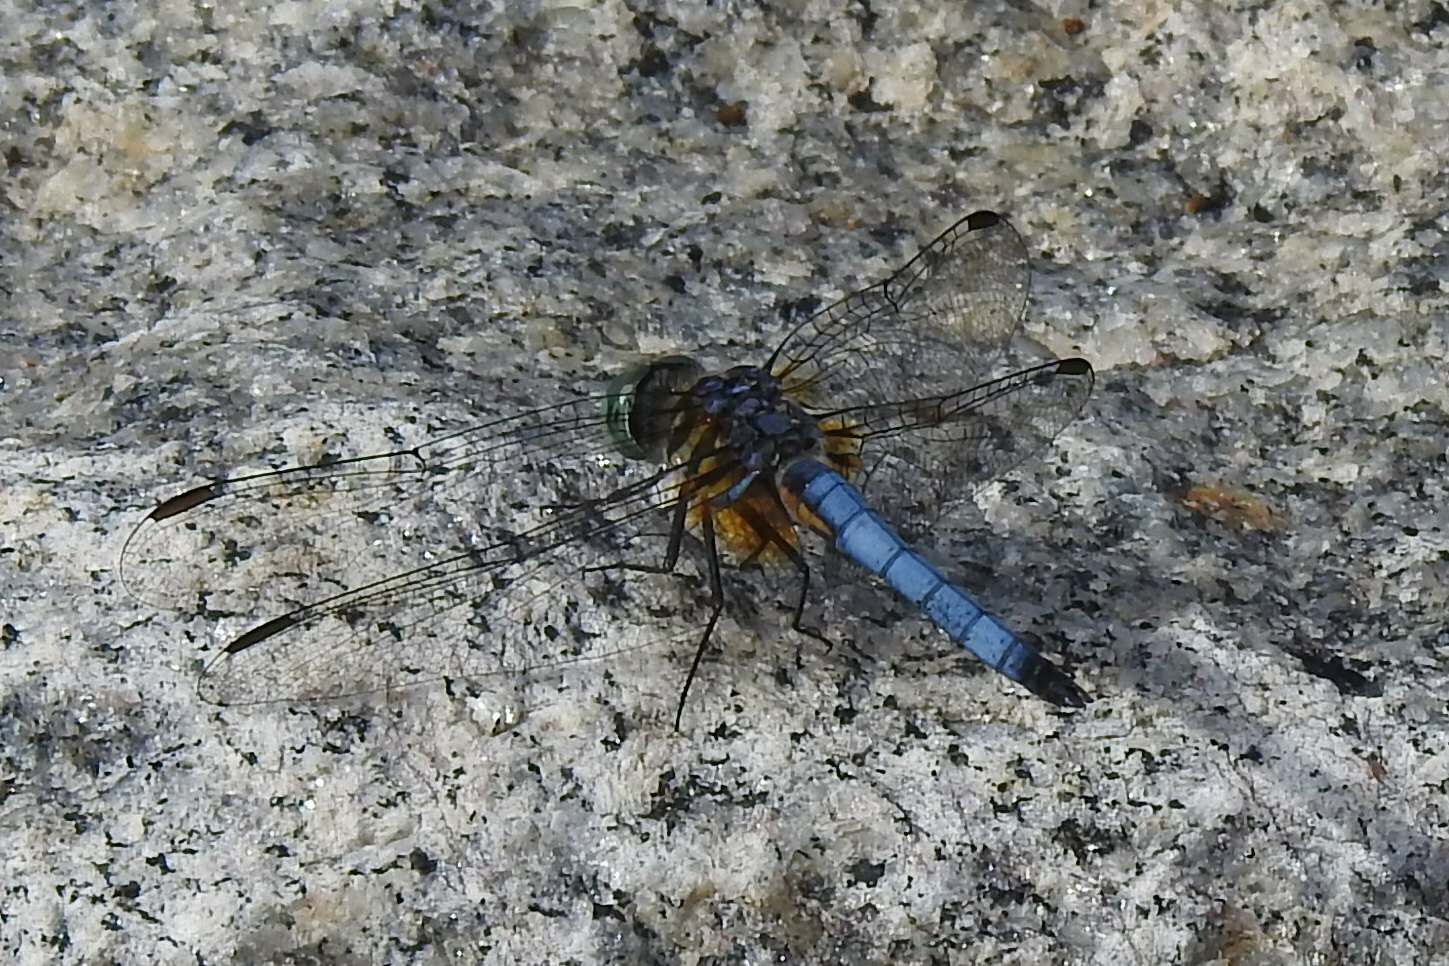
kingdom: Animalia
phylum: Arthropoda
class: Insecta
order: Odonata
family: Libellulidae
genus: Pachydiplax
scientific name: Pachydiplax longipennis
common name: Blue dasher
